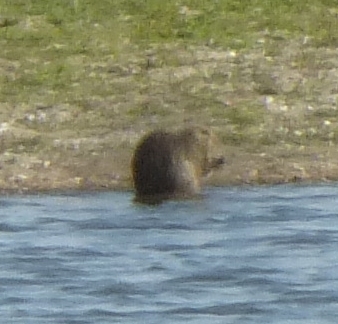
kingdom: Animalia
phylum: Chordata
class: Mammalia
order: Rodentia
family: Myocastoridae
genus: Myocastor
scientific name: Myocastor coypus
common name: Coypu
